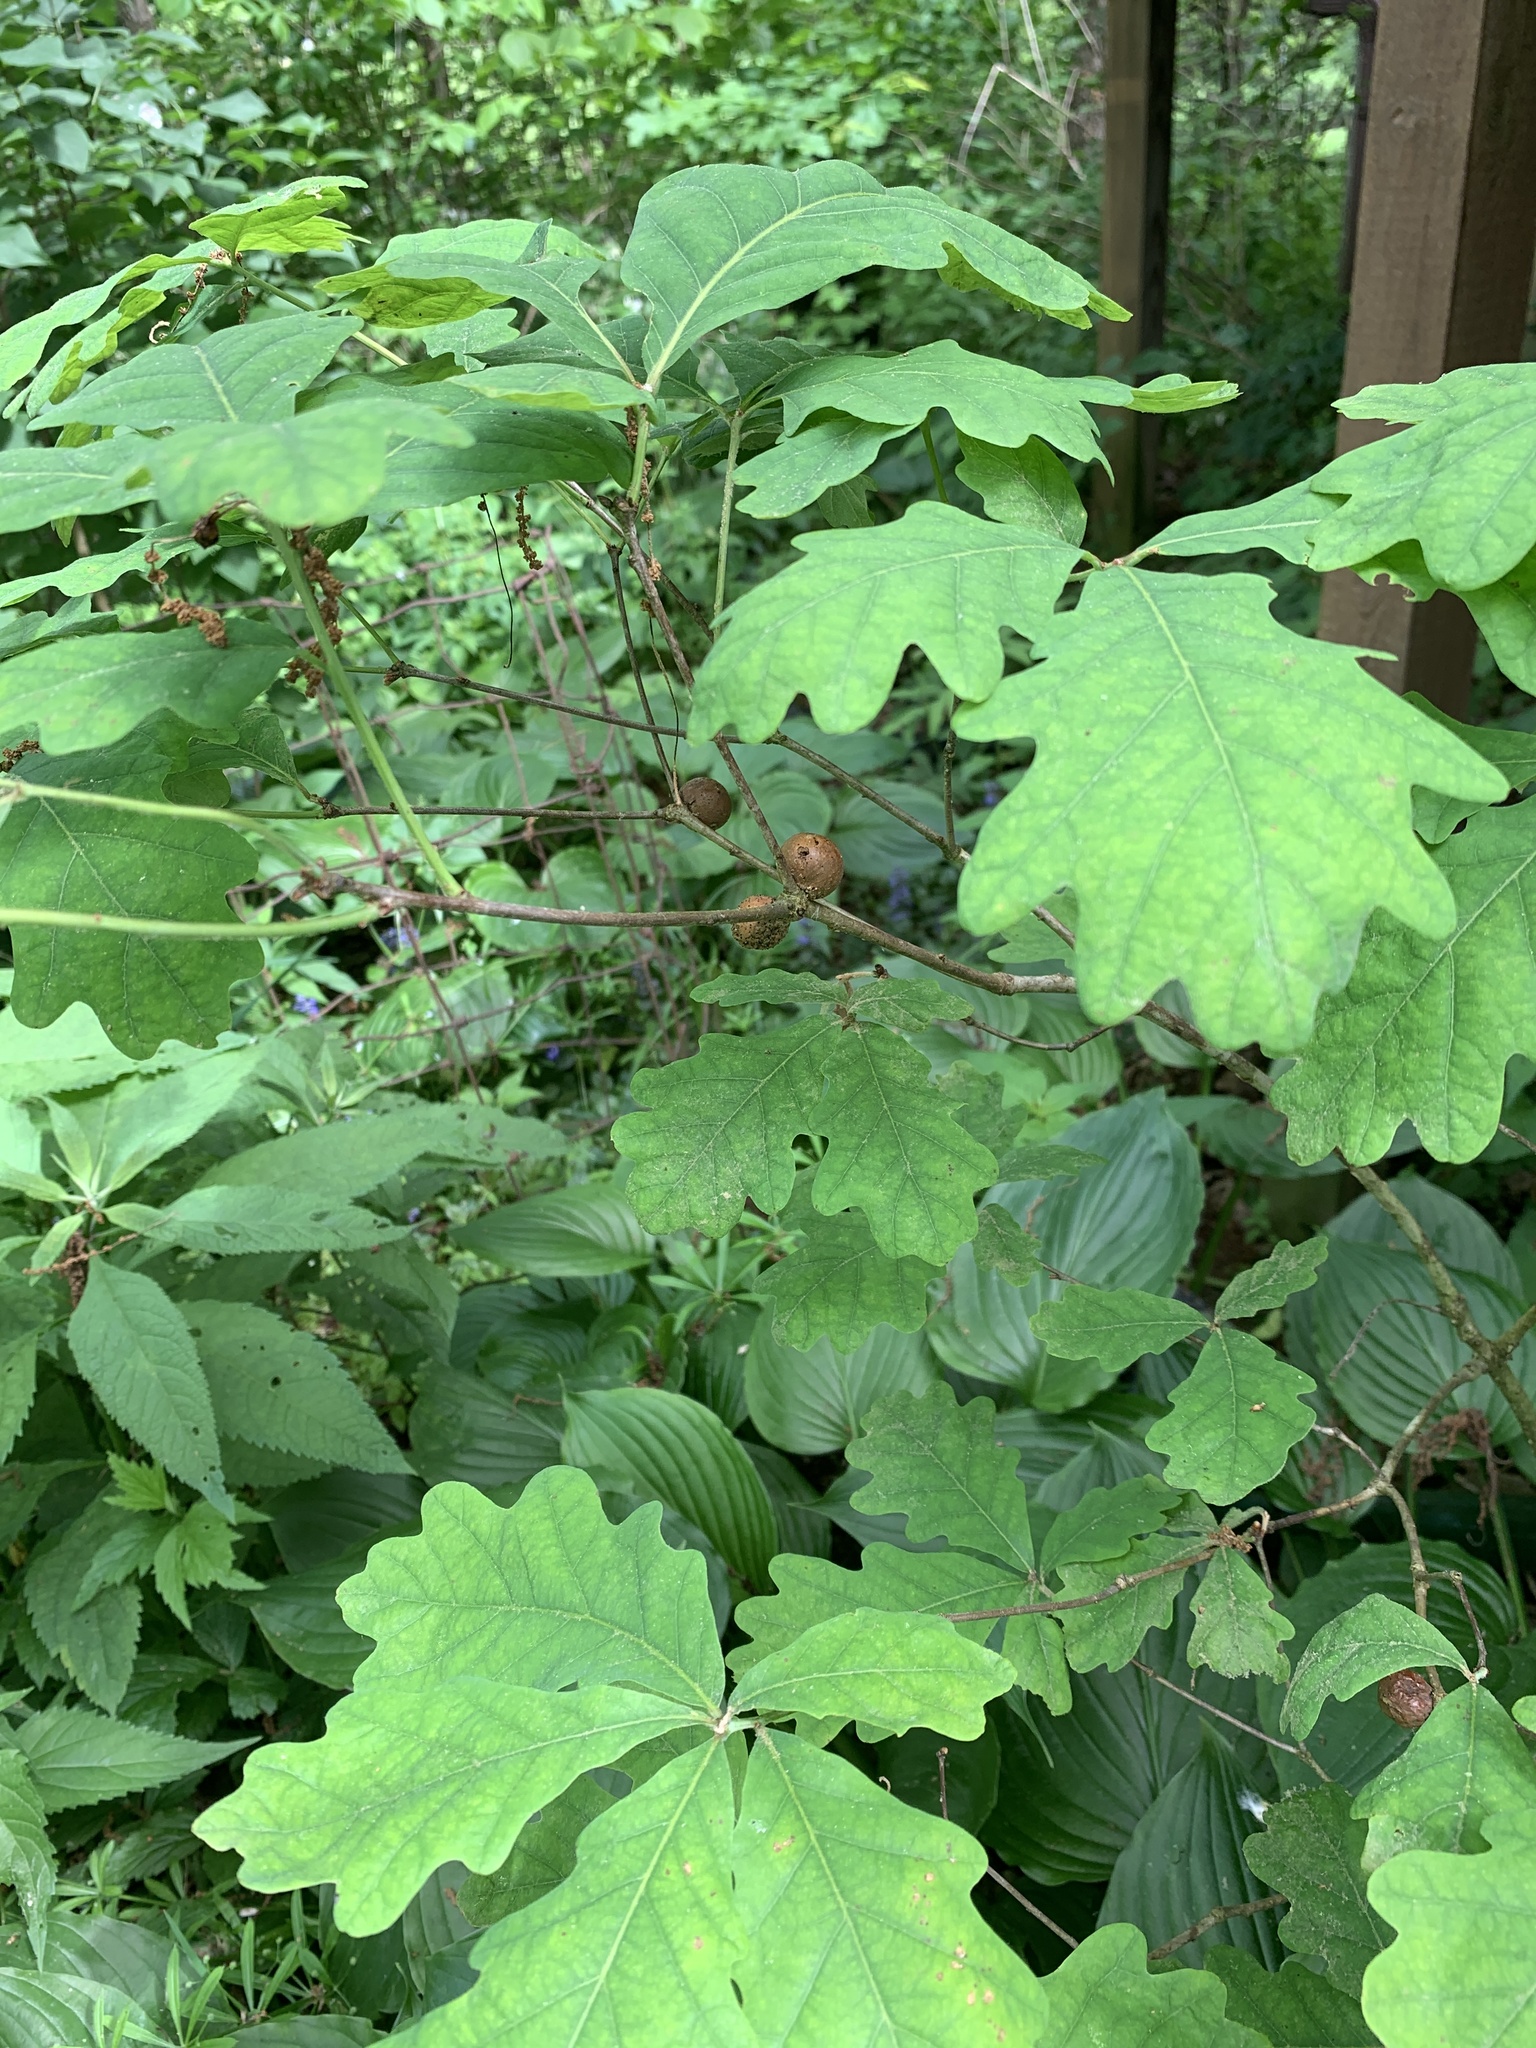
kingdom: Animalia
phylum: Arthropoda
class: Insecta
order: Hymenoptera
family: Cynipidae
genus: Disholcaspis
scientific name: Disholcaspis quercusglobulus
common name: Round bullet gall wasp
